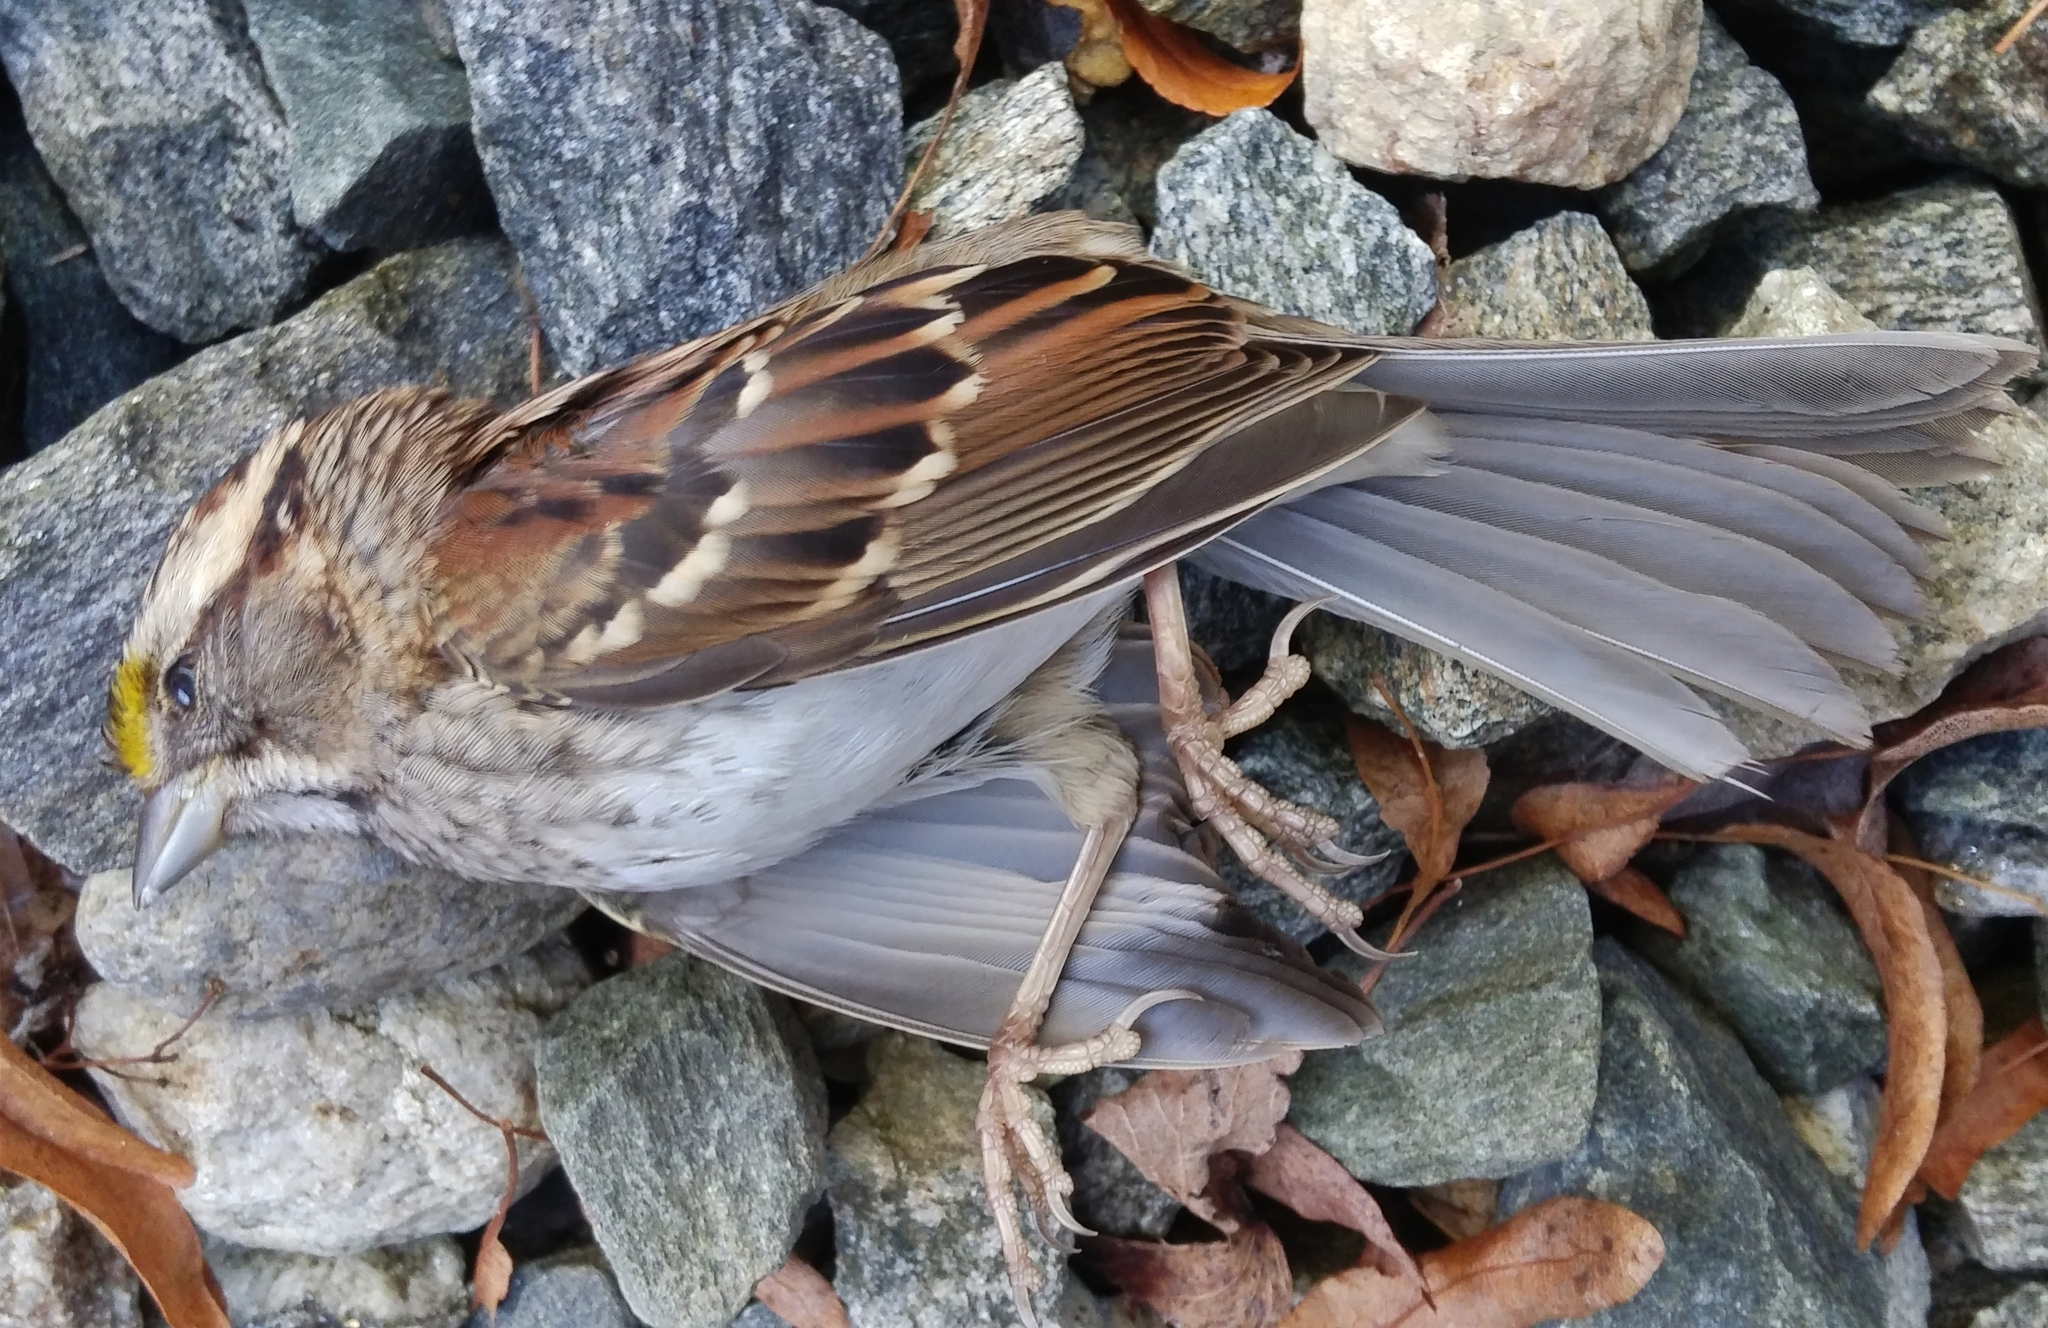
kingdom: Animalia
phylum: Chordata
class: Aves
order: Passeriformes
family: Passerellidae
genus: Zonotrichia
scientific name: Zonotrichia albicollis
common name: White-throated sparrow
